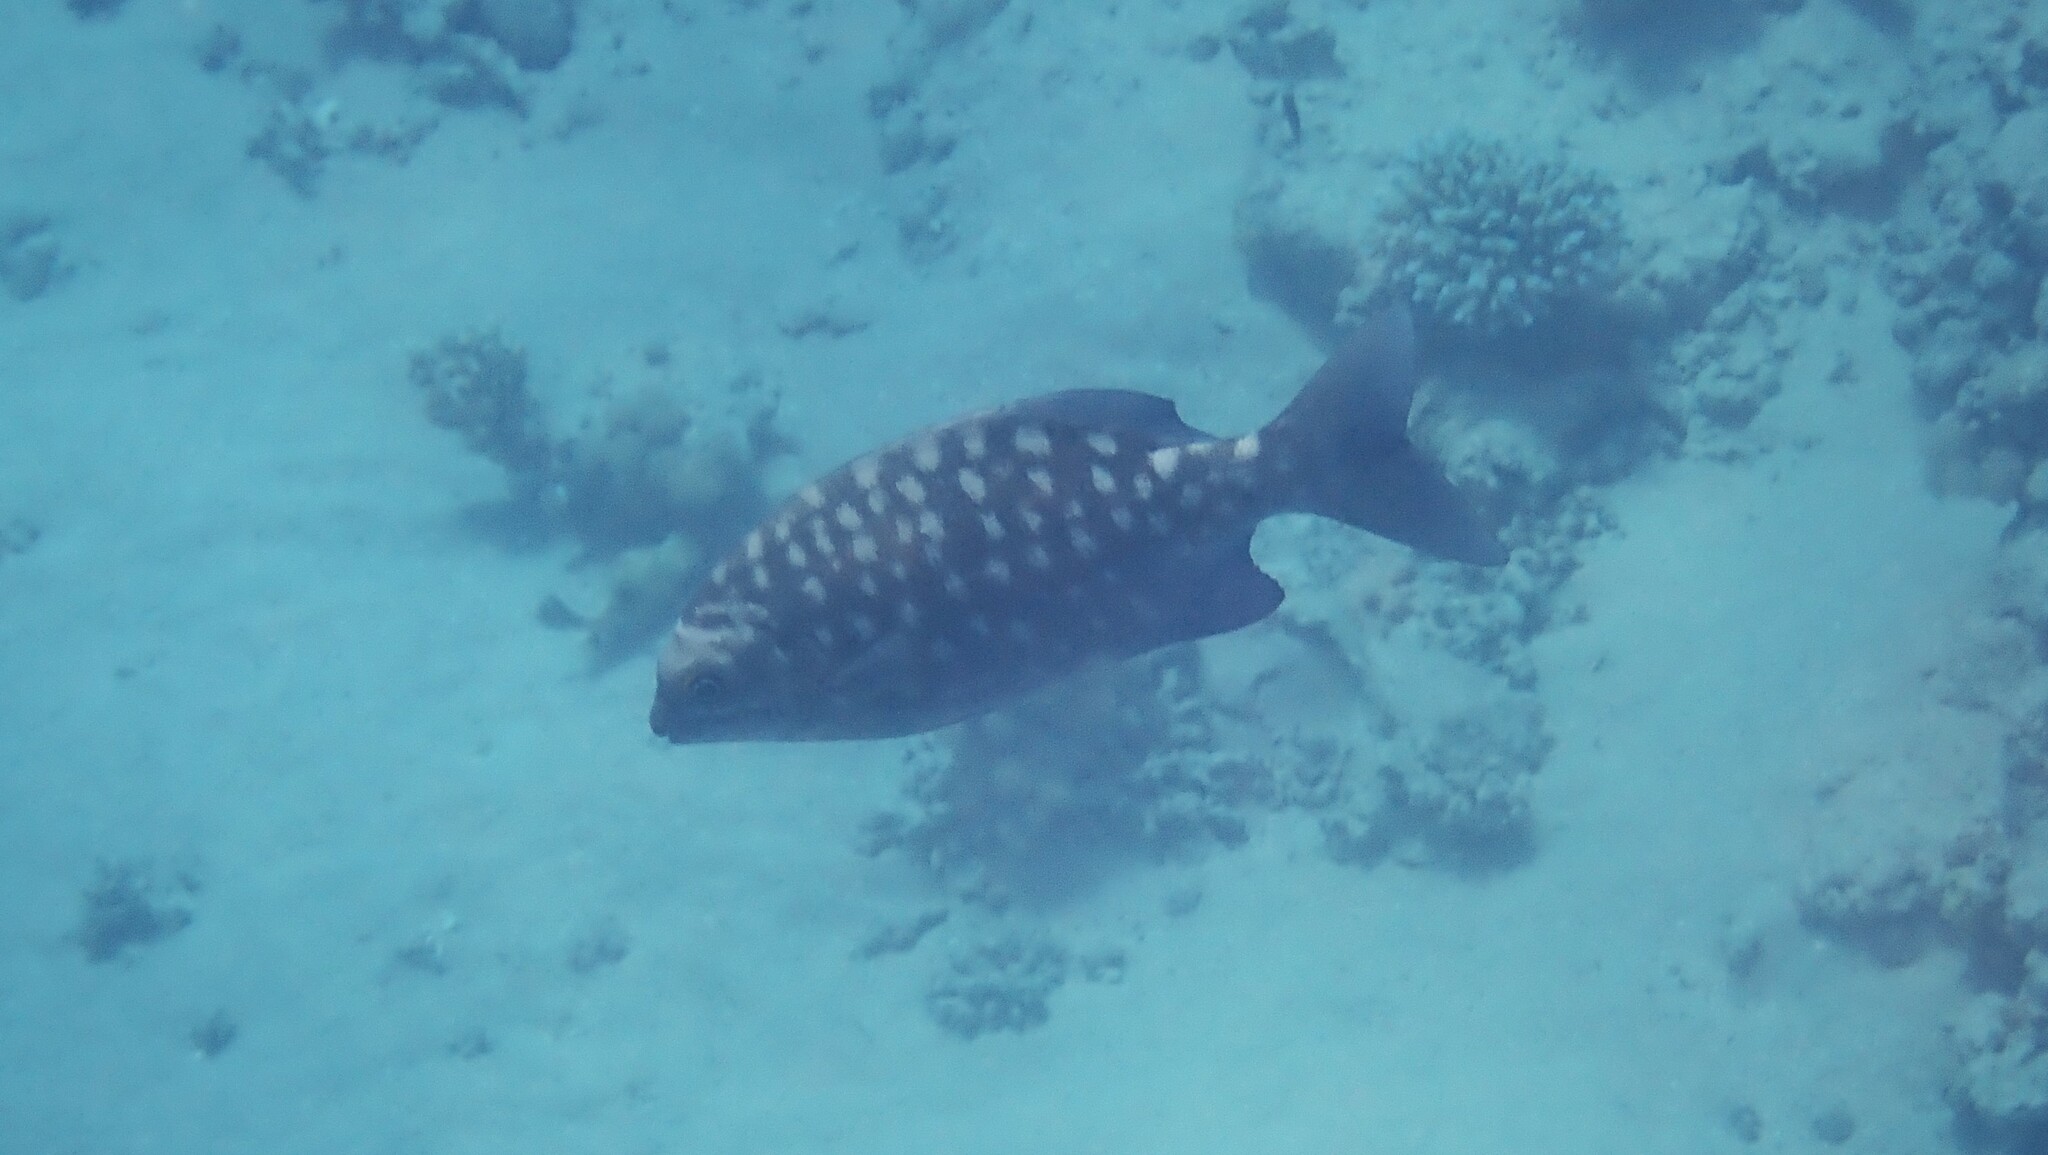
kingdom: Animalia
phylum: Chordata
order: Perciformes
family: Kyphosidae
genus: Kyphosus
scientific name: Kyphosus cinerascens
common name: Topsail drummer
